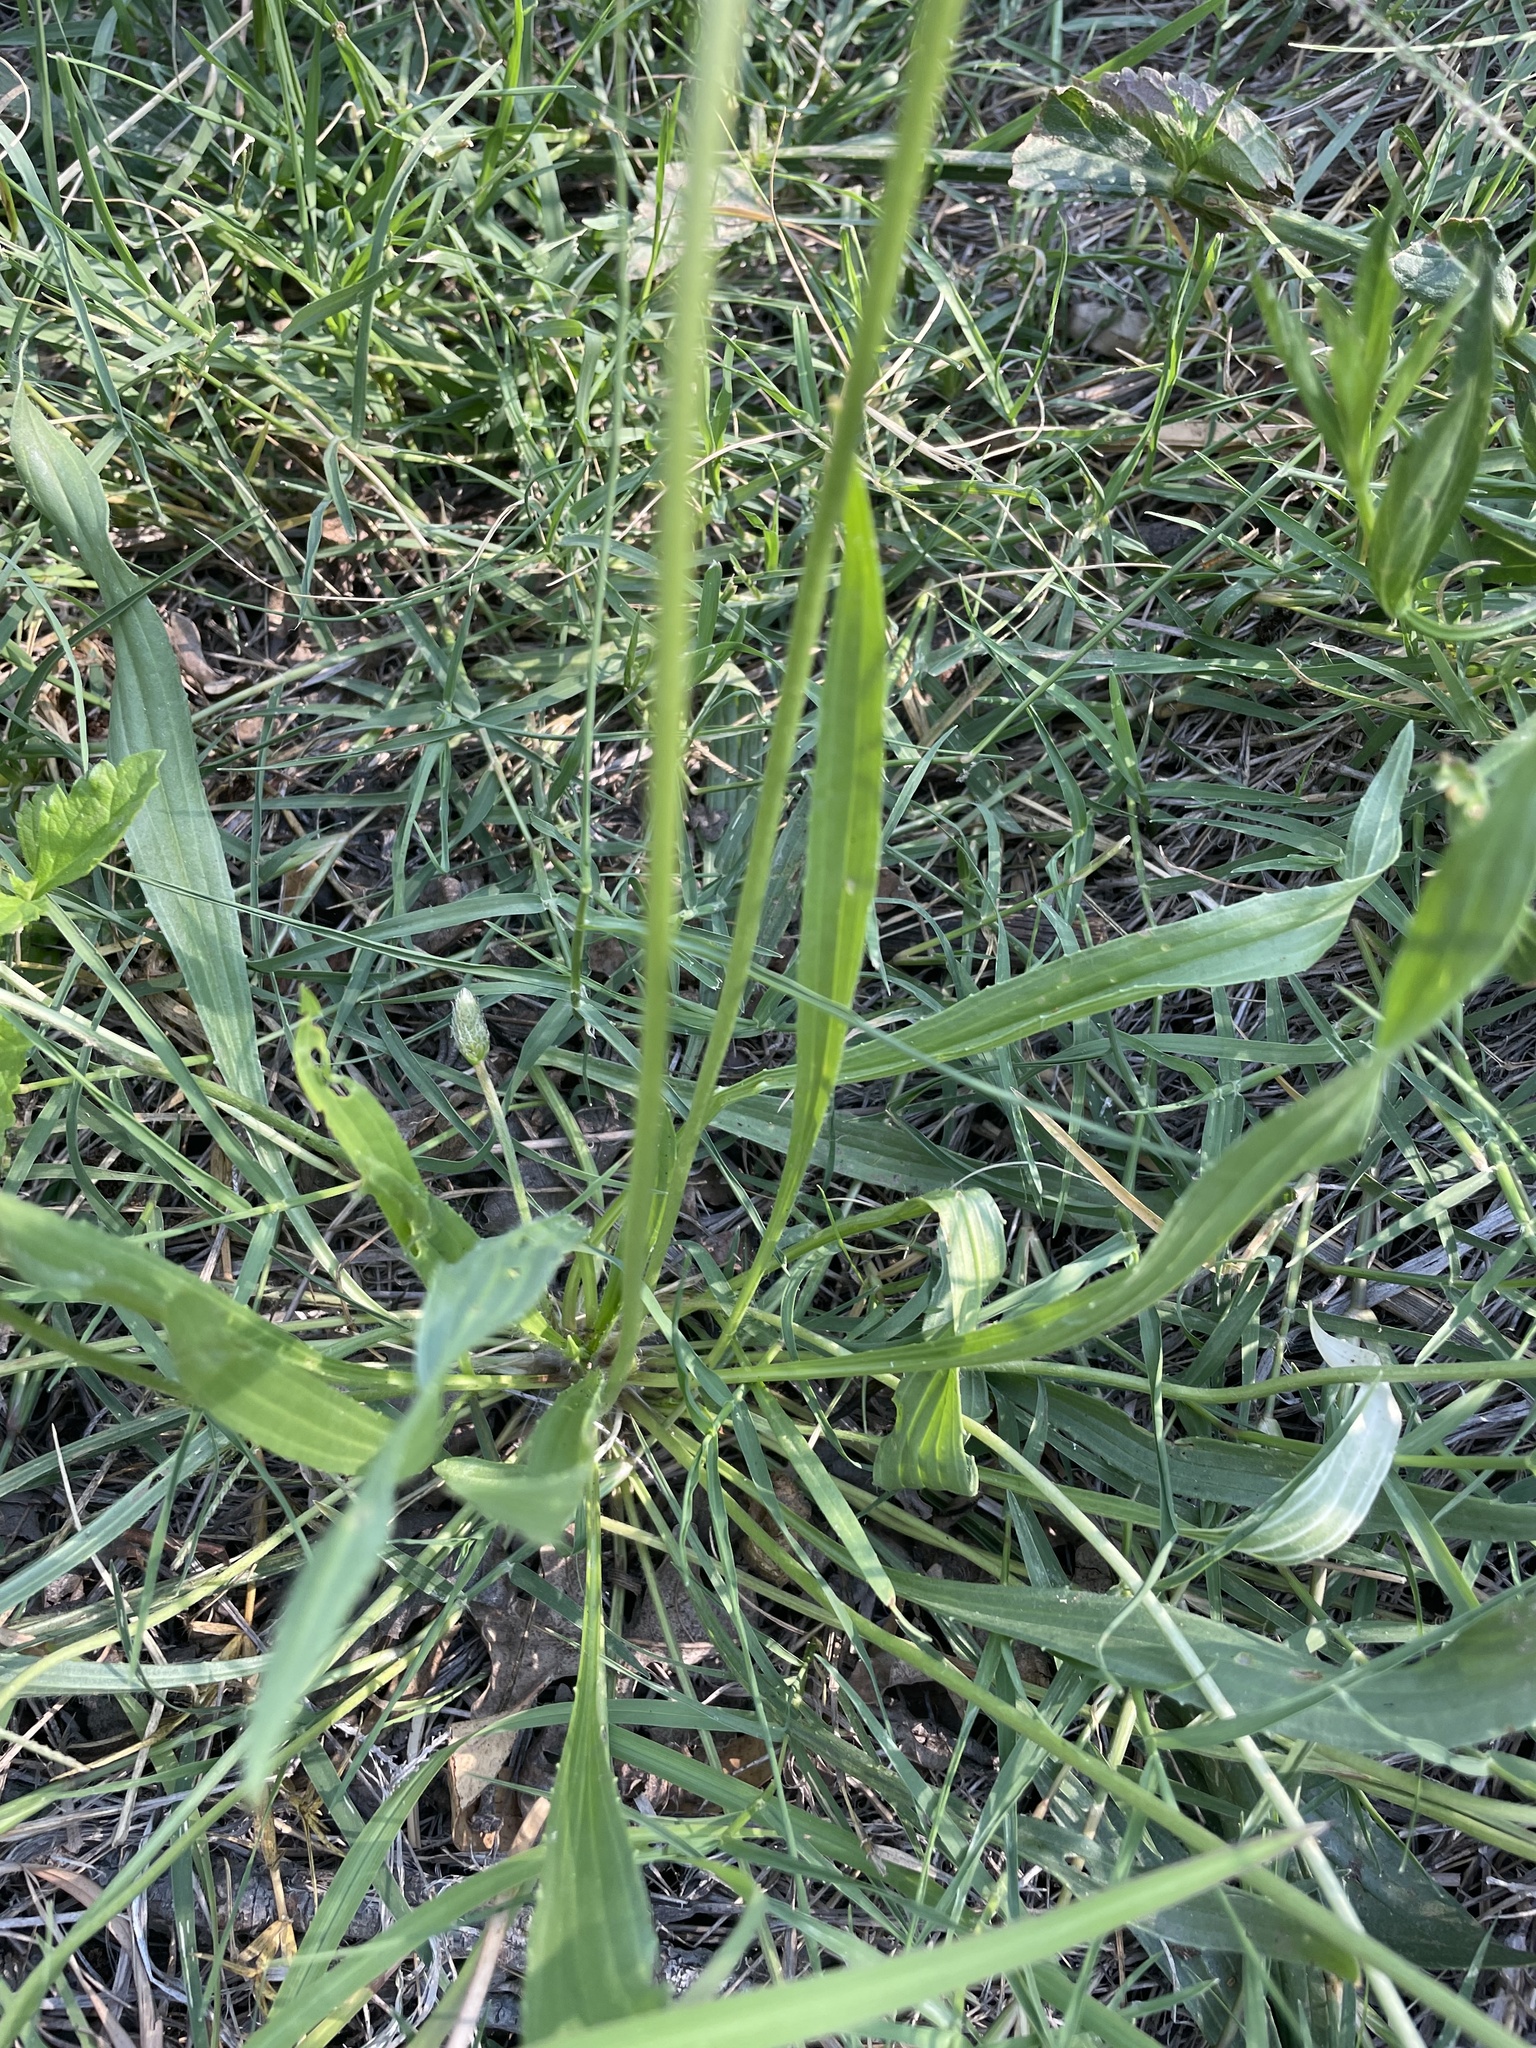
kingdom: Plantae
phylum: Tracheophyta
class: Magnoliopsida
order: Lamiales
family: Plantaginaceae
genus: Plantago
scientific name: Plantago lanceolata
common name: Ribwort plantain
